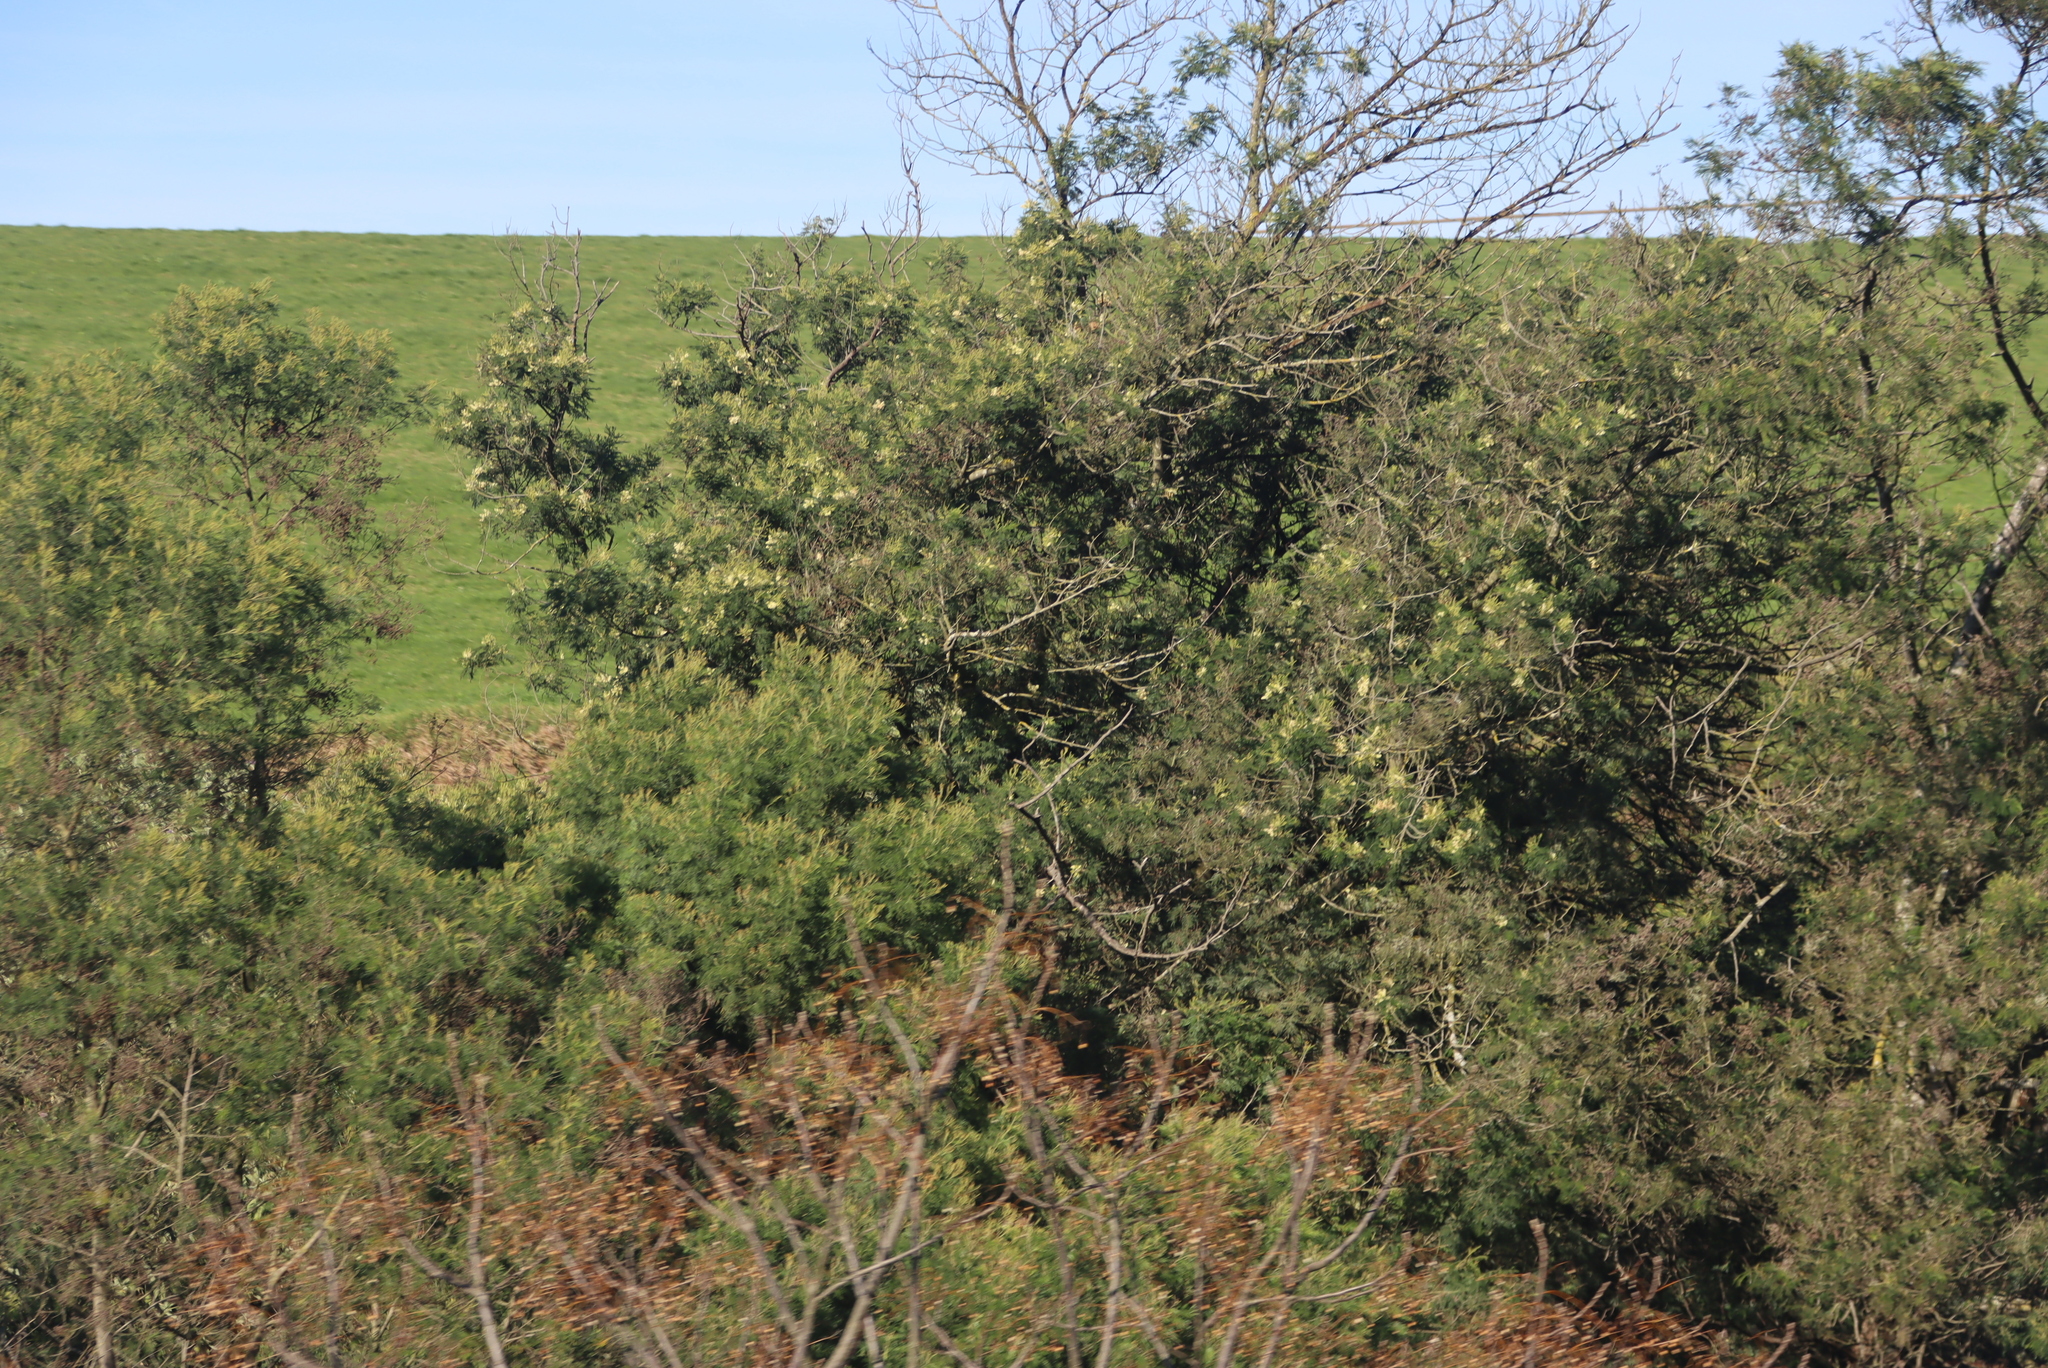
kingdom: Plantae
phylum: Tracheophyta
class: Magnoliopsida
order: Fabales
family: Fabaceae
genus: Acacia
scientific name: Acacia mearnsii
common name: Black wattle
